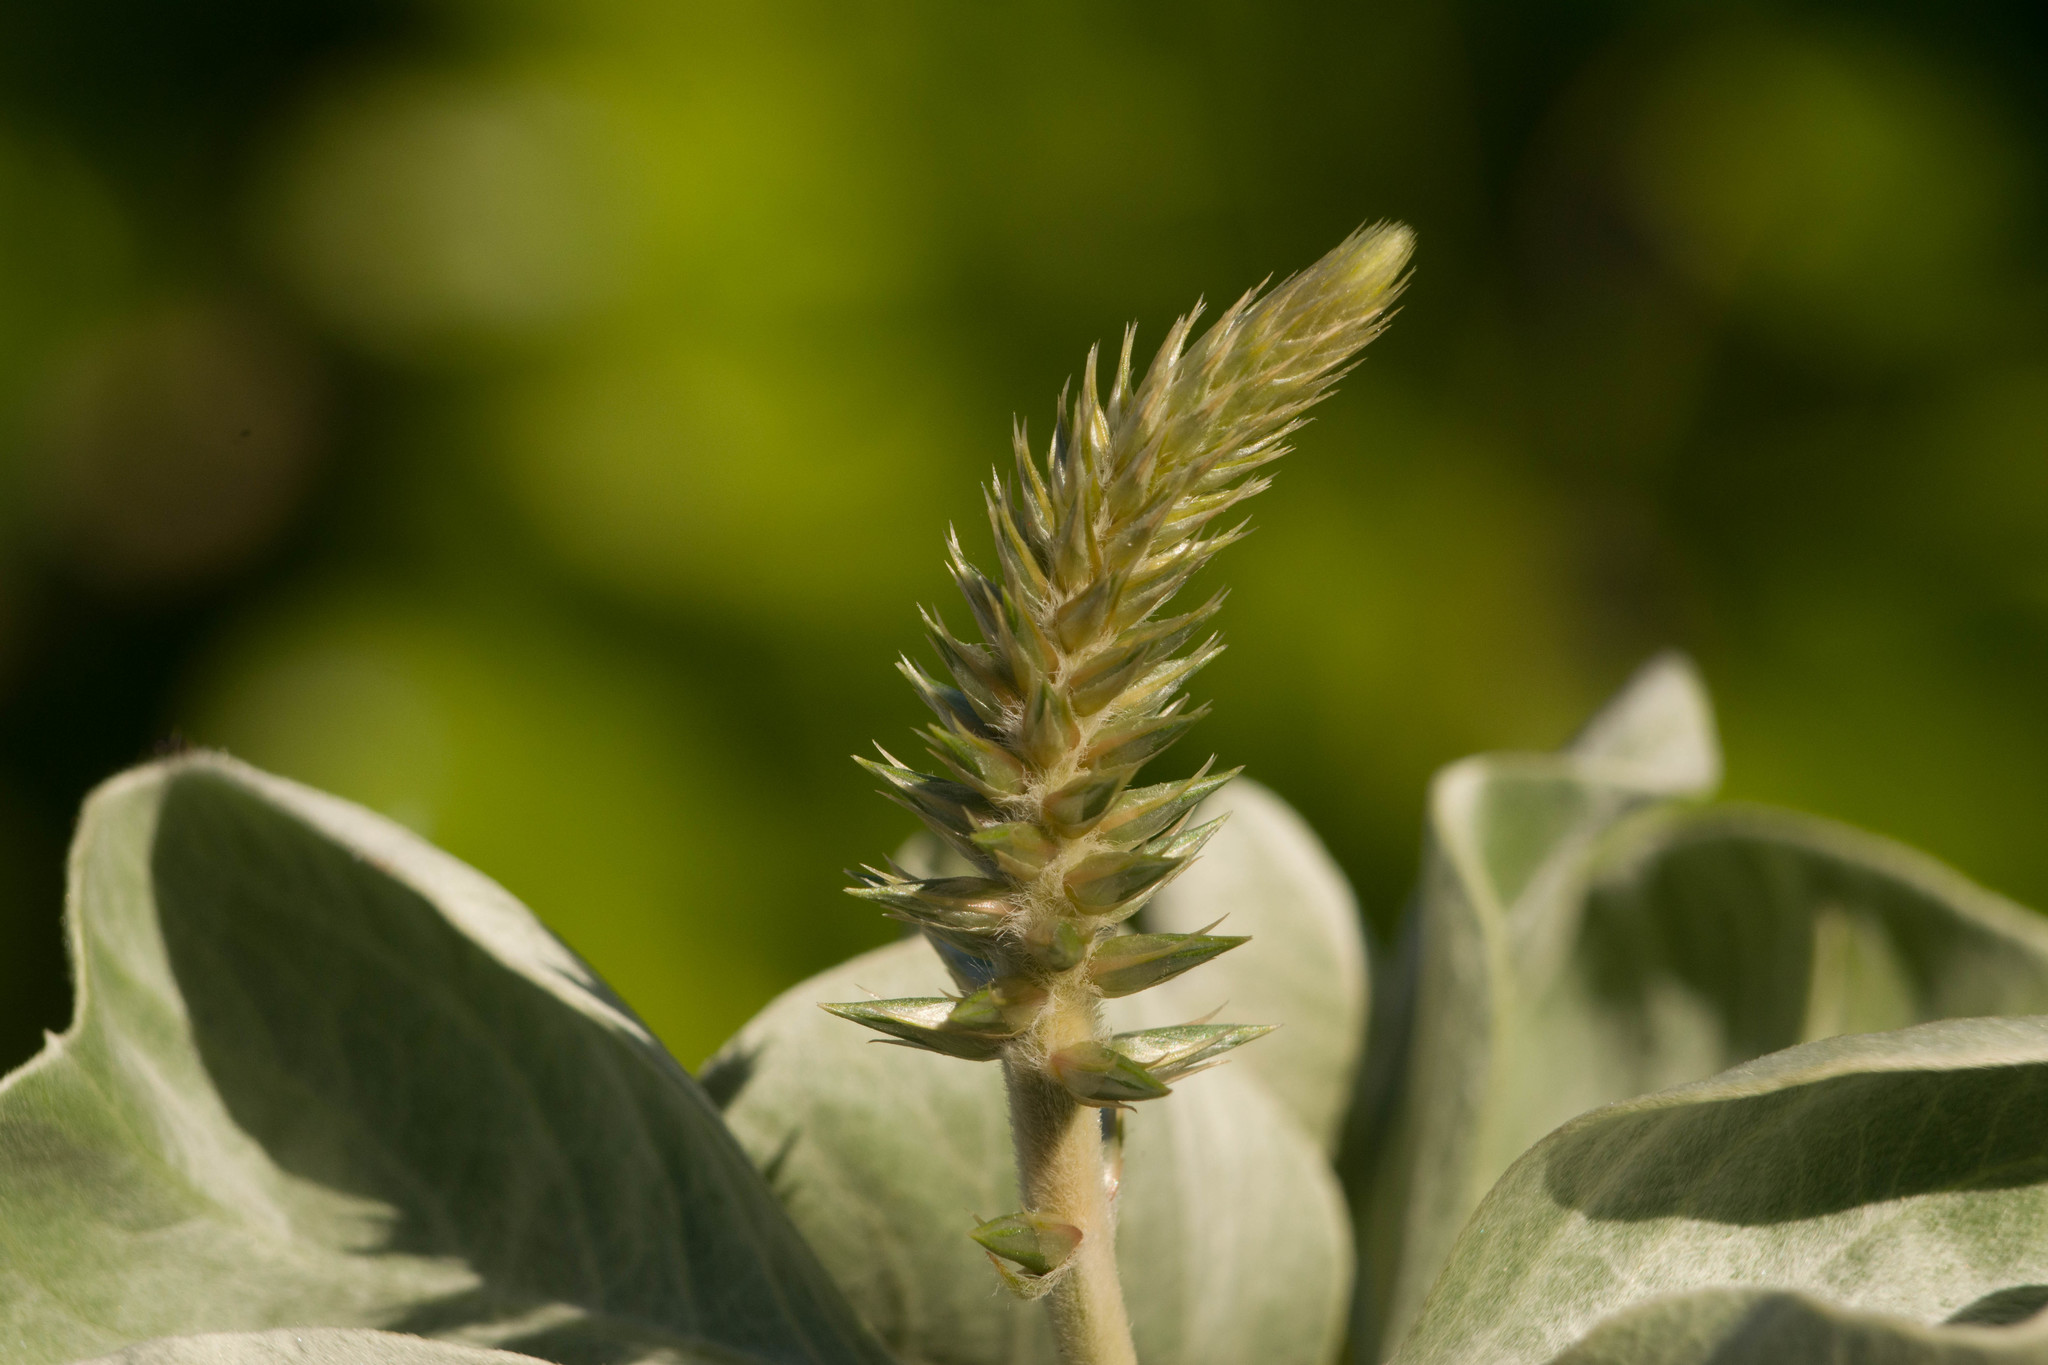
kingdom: Plantae
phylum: Tracheophyta
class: Magnoliopsida
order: Caryophyllales
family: Amaranthaceae
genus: Achyranthes
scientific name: Achyranthes splendens
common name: Maui chaff flower
